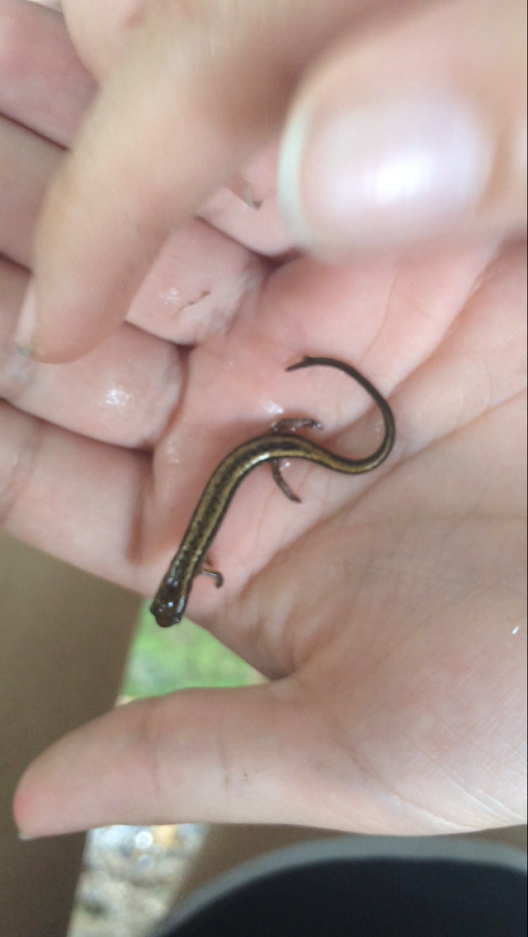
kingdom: Animalia
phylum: Chordata
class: Amphibia
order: Caudata
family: Plethodontidae
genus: Eurycea
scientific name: Eurycea bislineata
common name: Northern two-lined salamander
